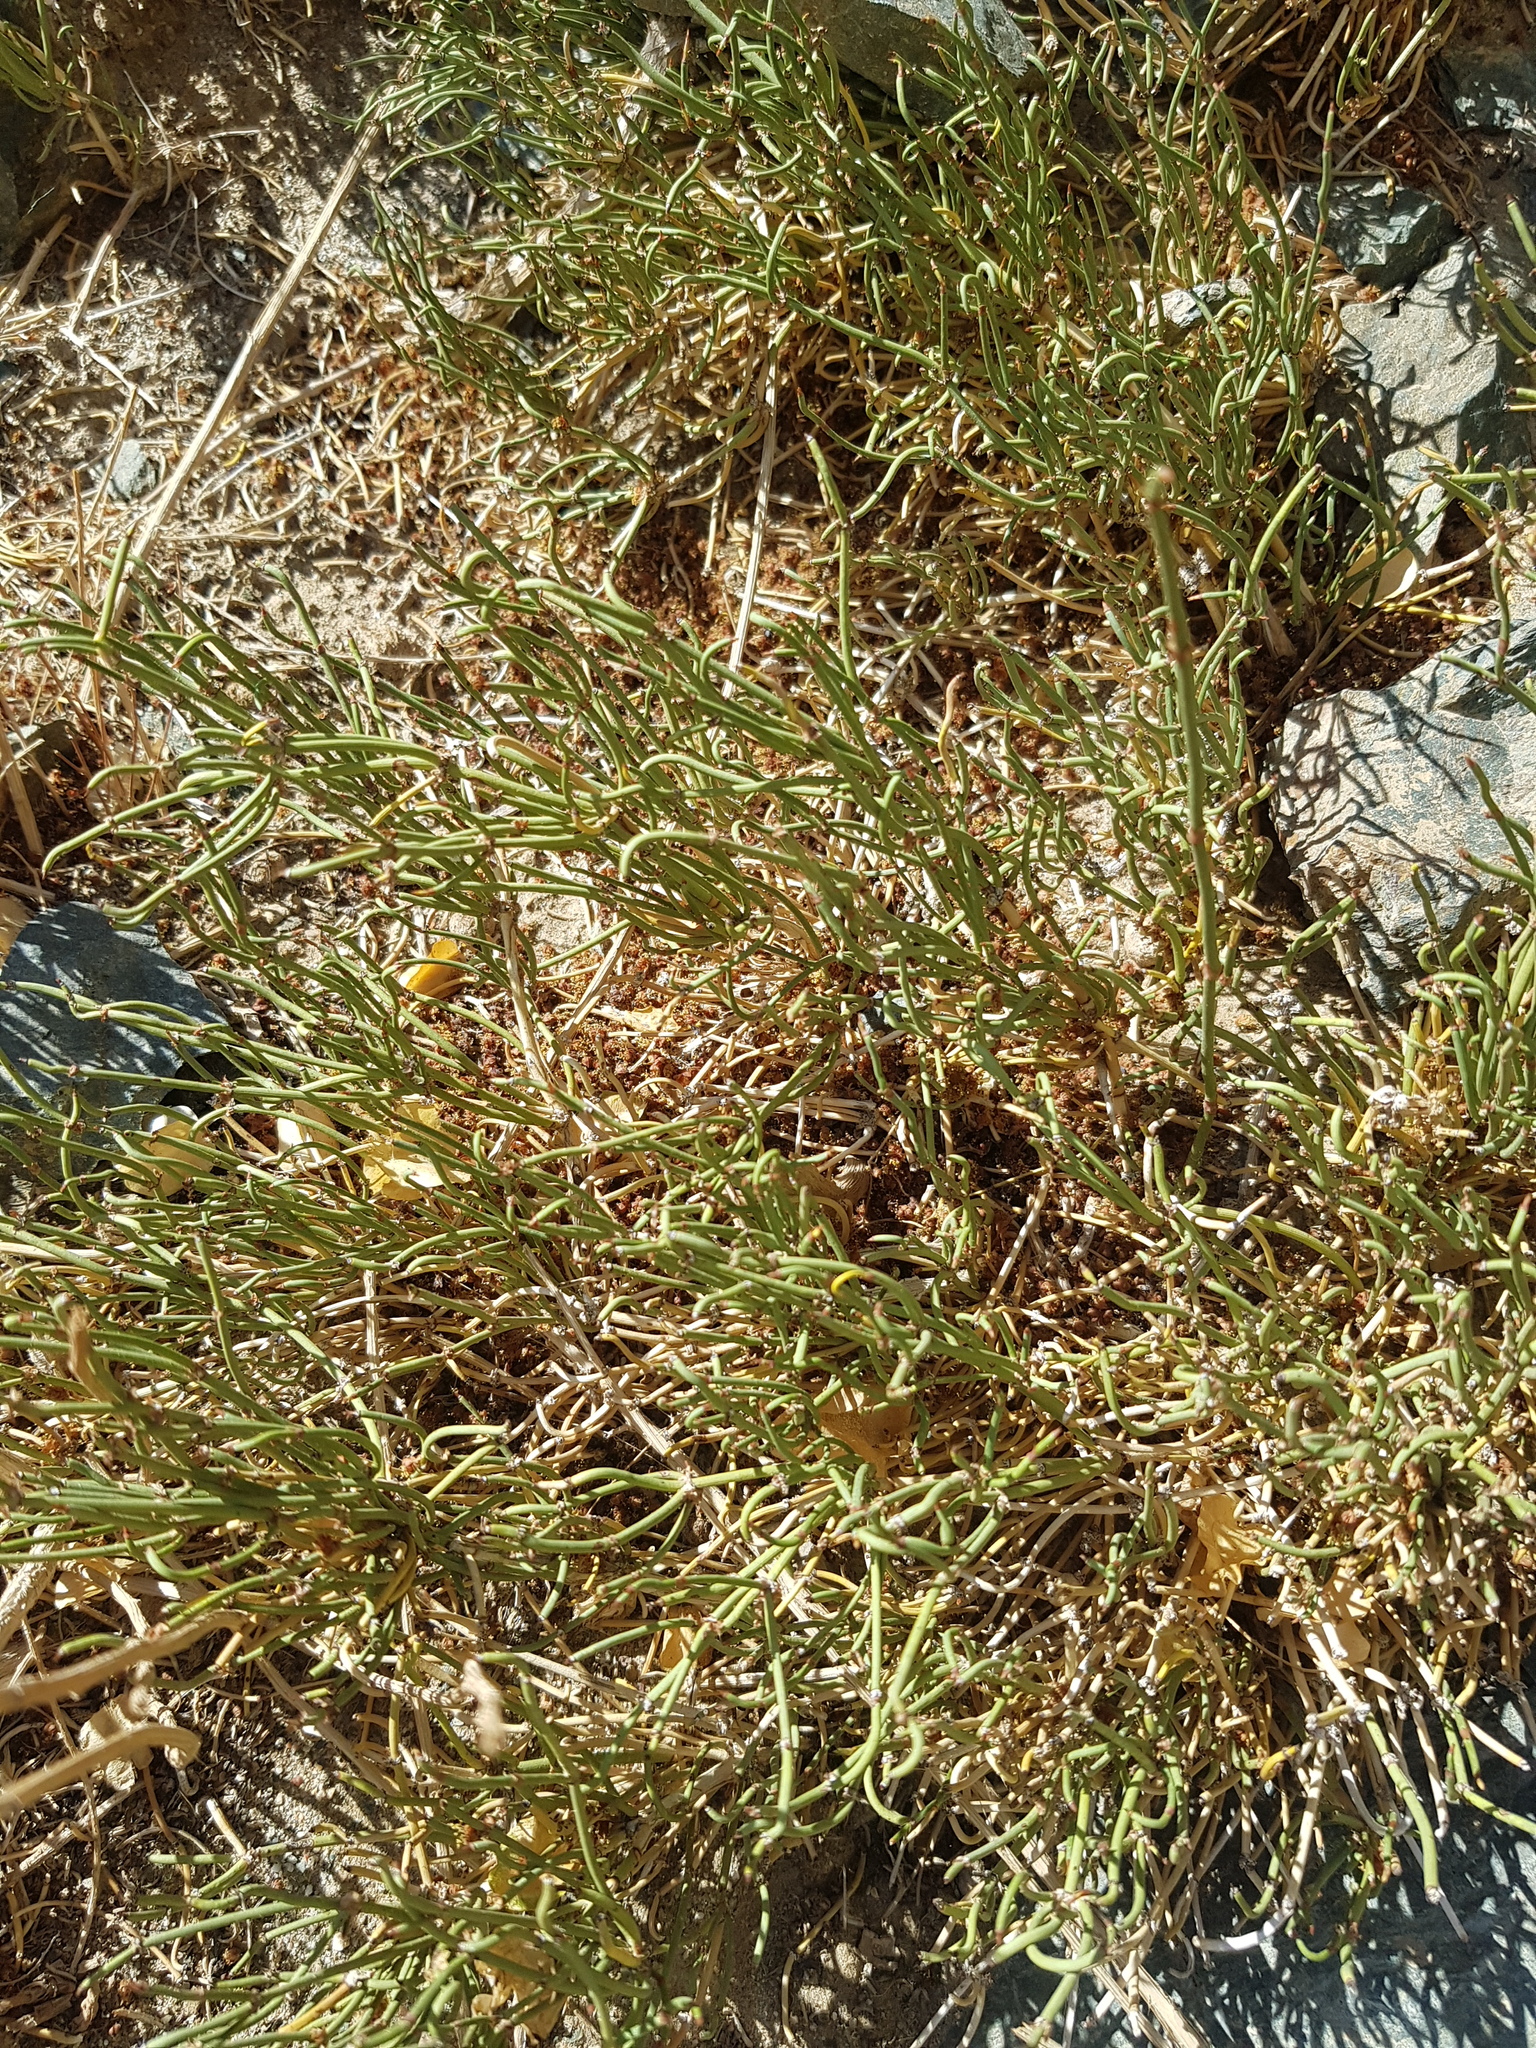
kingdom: Plantae
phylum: Tracheophyta
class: Gnetopsida
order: Ephedrales
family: Ephedraceae
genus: Ephedra
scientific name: Ephedra przewalskii
